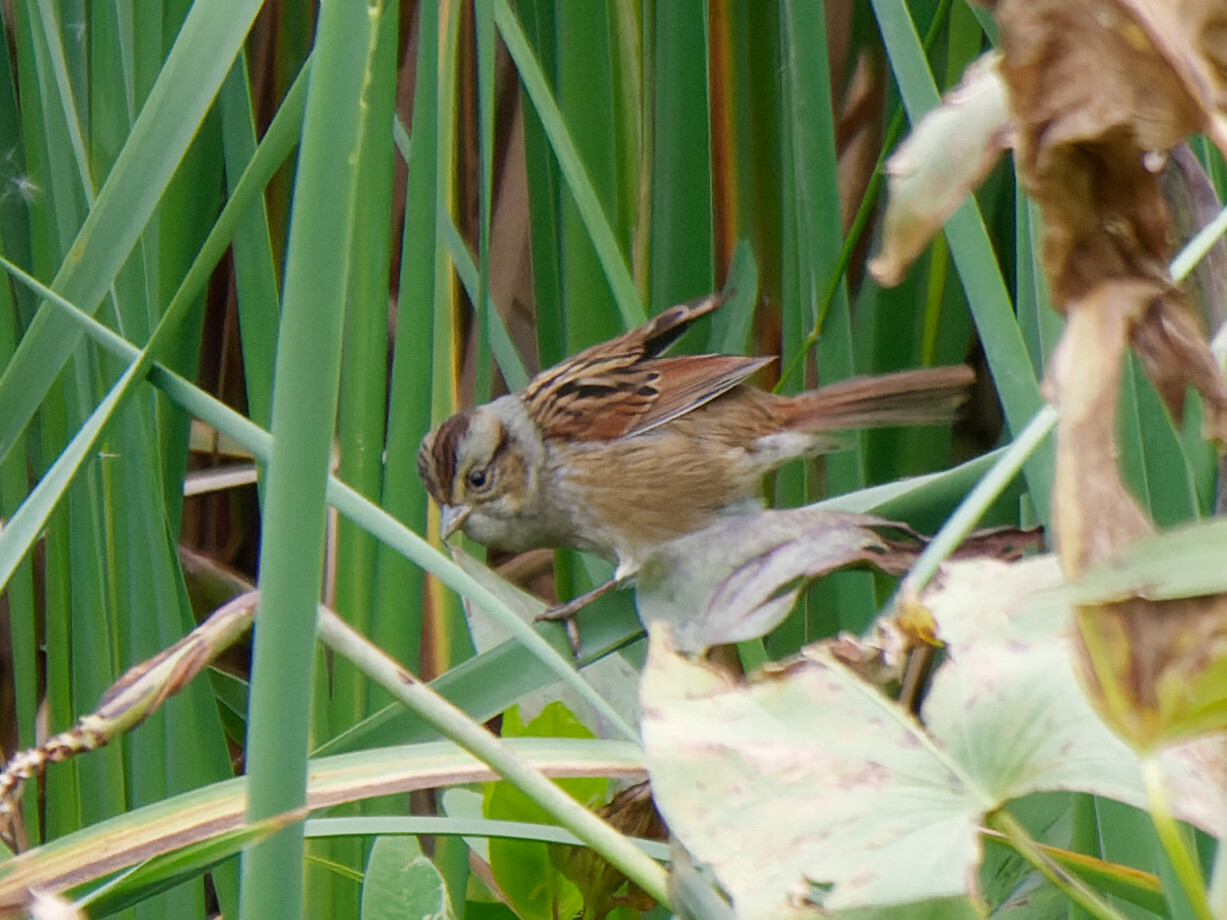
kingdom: Animalia
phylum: Chordata
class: Aves
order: Passeriformes
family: Passerellidae
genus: Melospiza
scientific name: Melospiza georgiana
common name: Swamp sparrow
